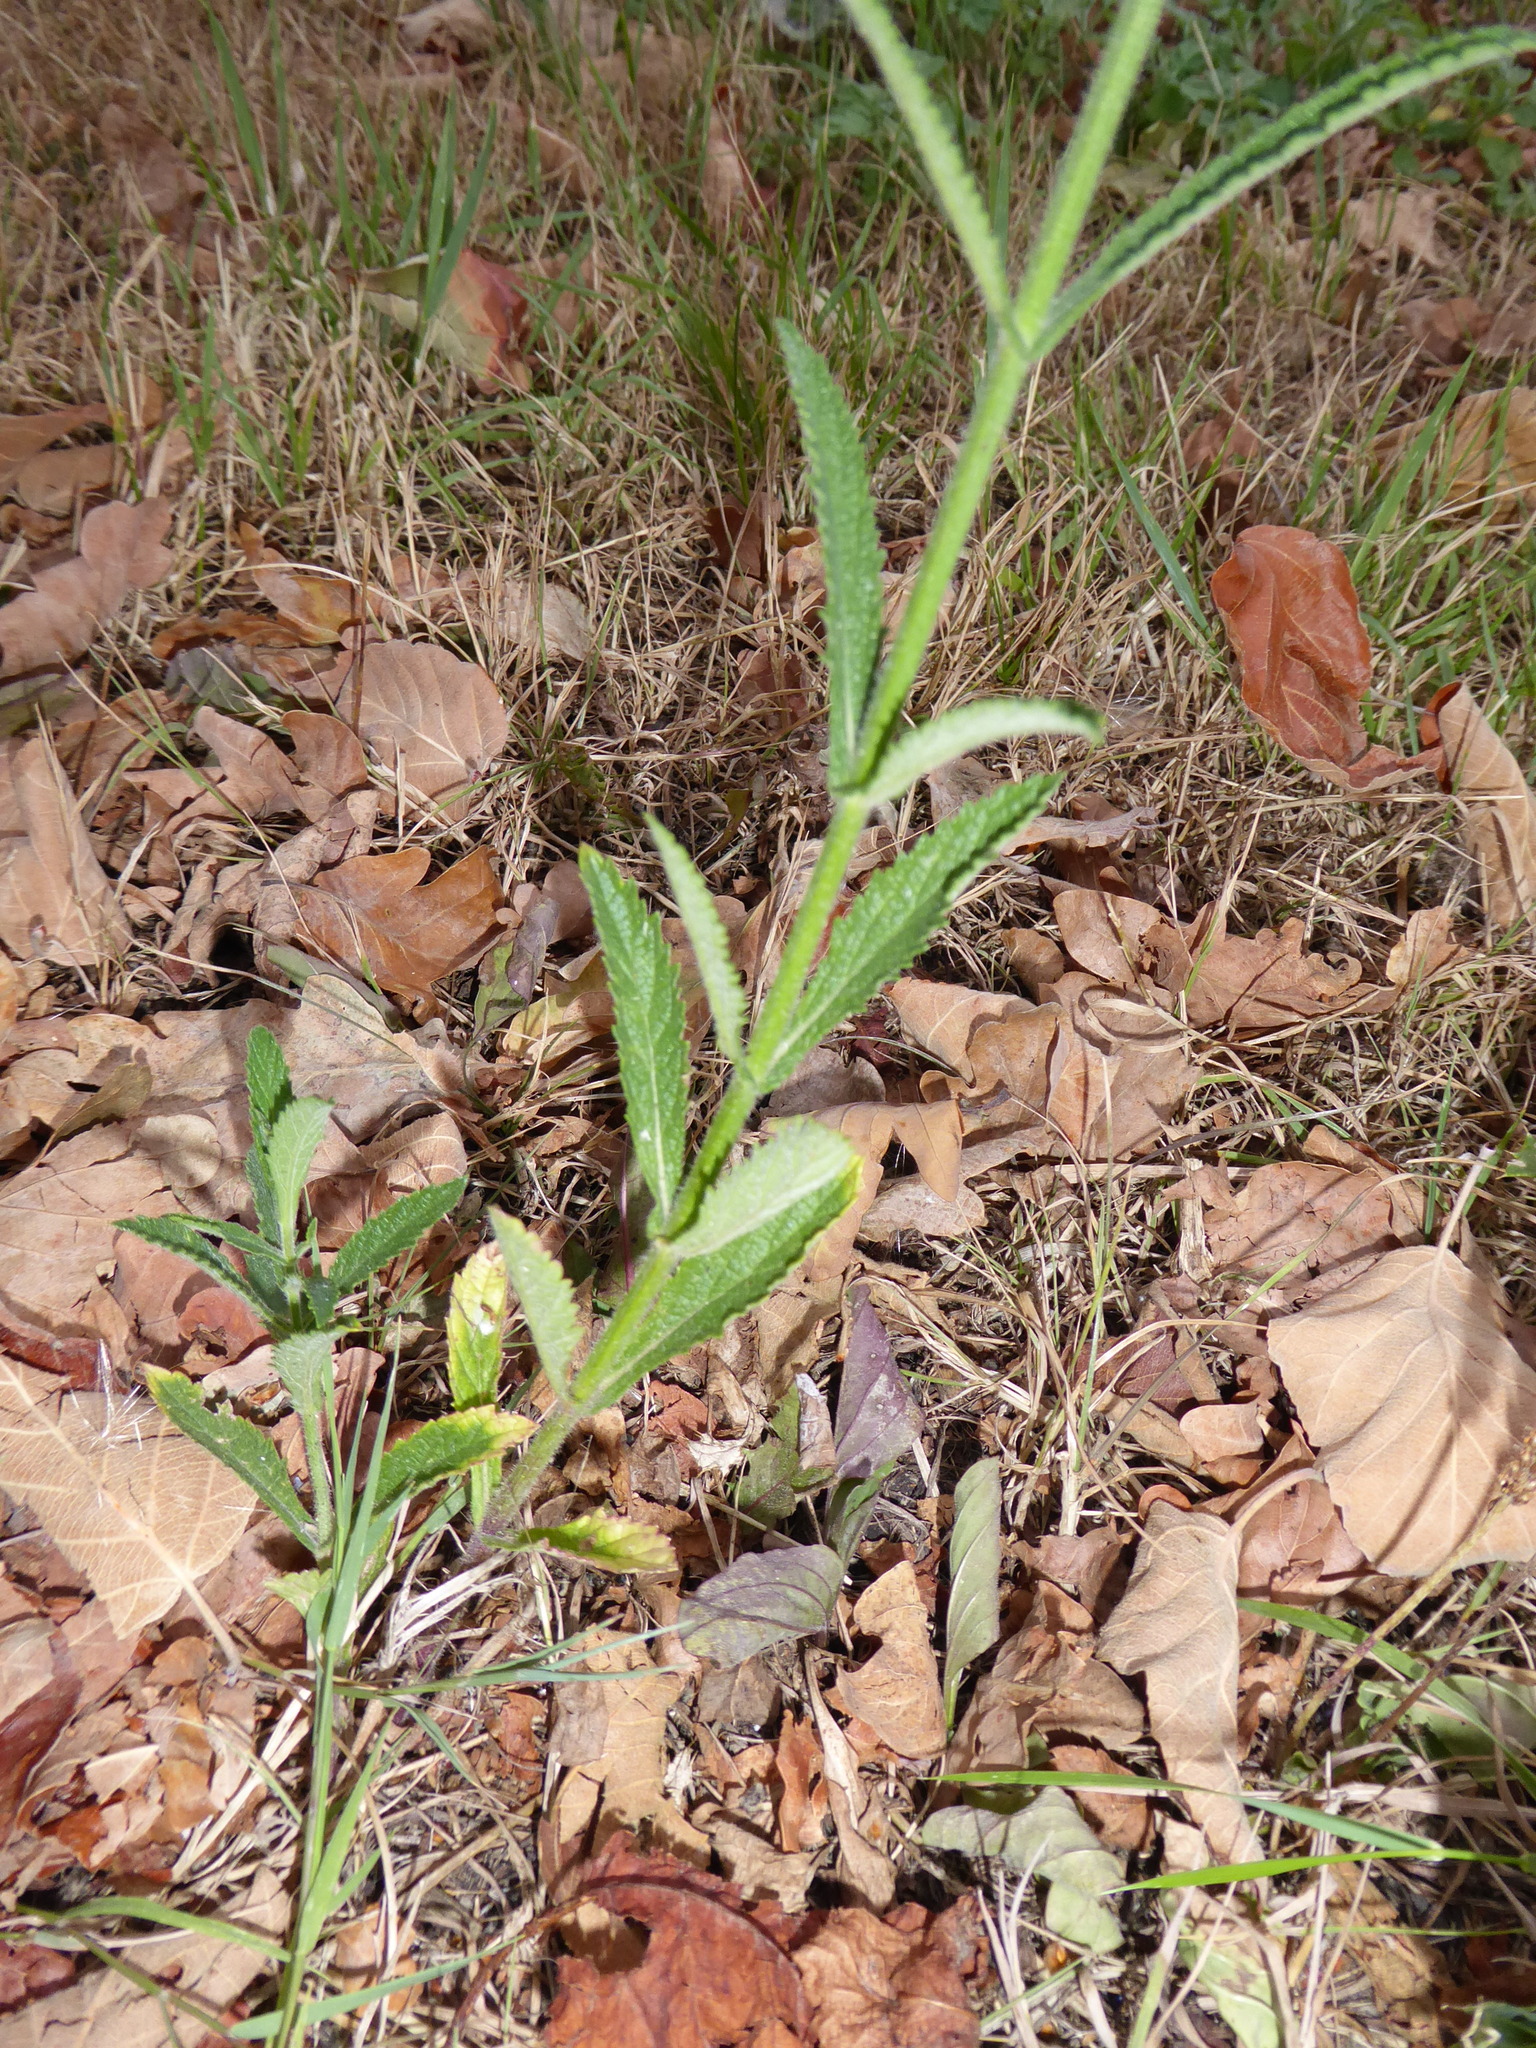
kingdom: Plantae
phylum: Tracheophyta
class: Magnoliopsida
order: Lamiales
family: Verbenaceae
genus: Verbena
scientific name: Verbena bonariensis
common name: Purpletop vervain
